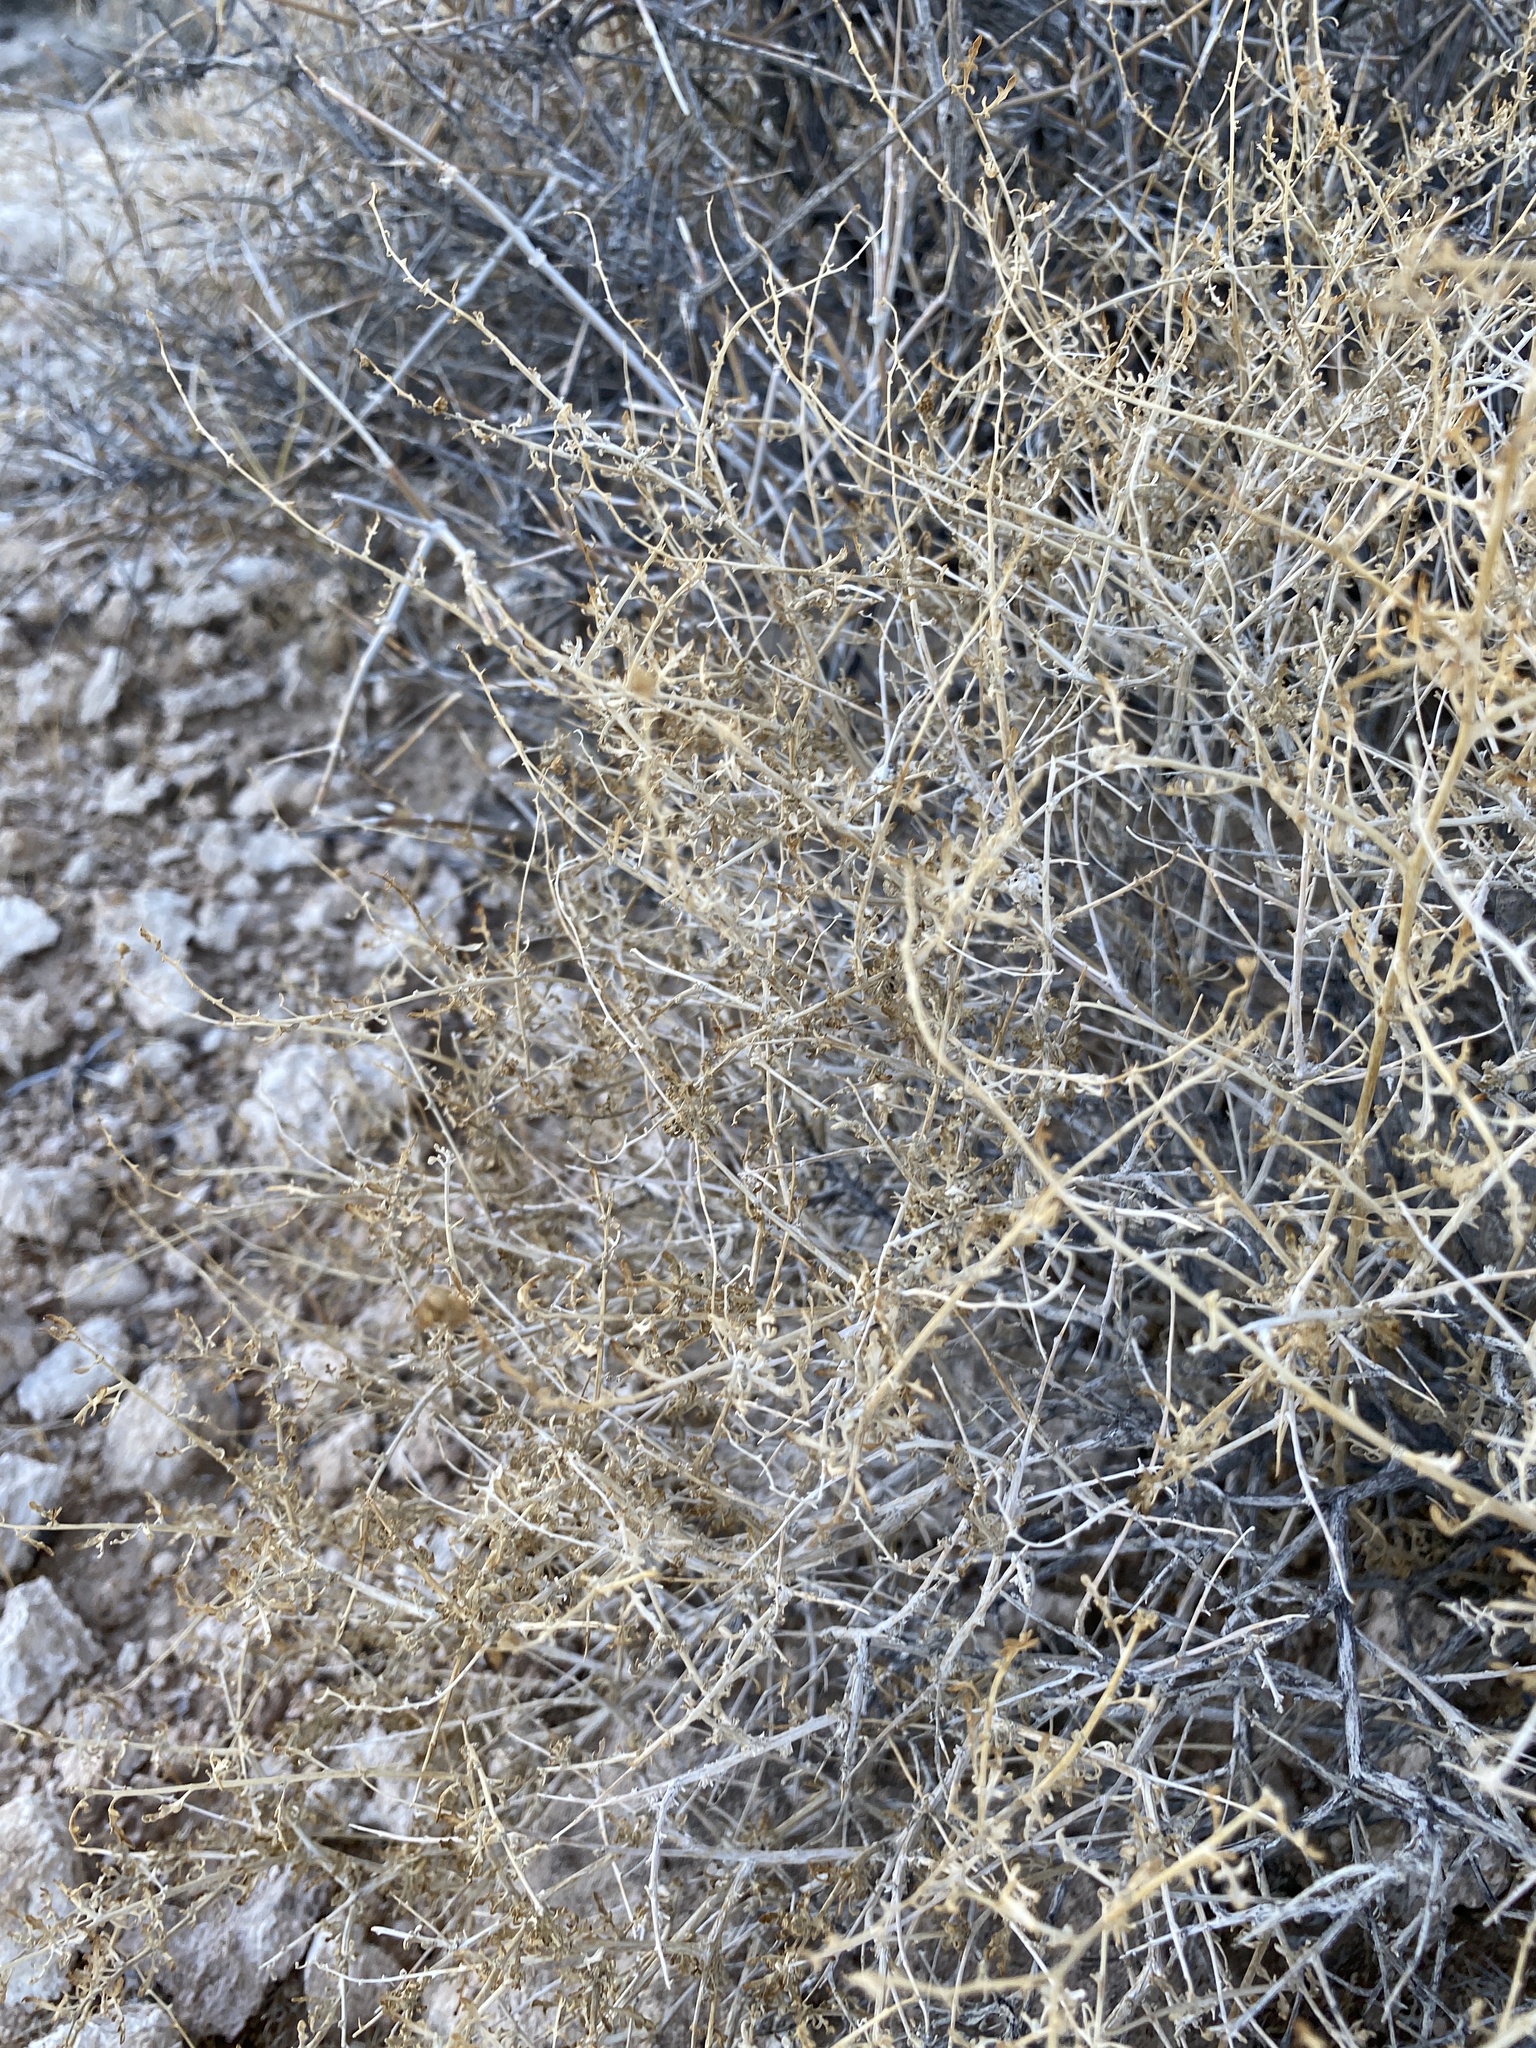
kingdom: Plantae
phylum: Tracheophyta
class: Magnoliopsida
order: Asterales
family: Asteraceae
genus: Ambrosia
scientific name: Ambrosia dumosa
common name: Bur-sage
